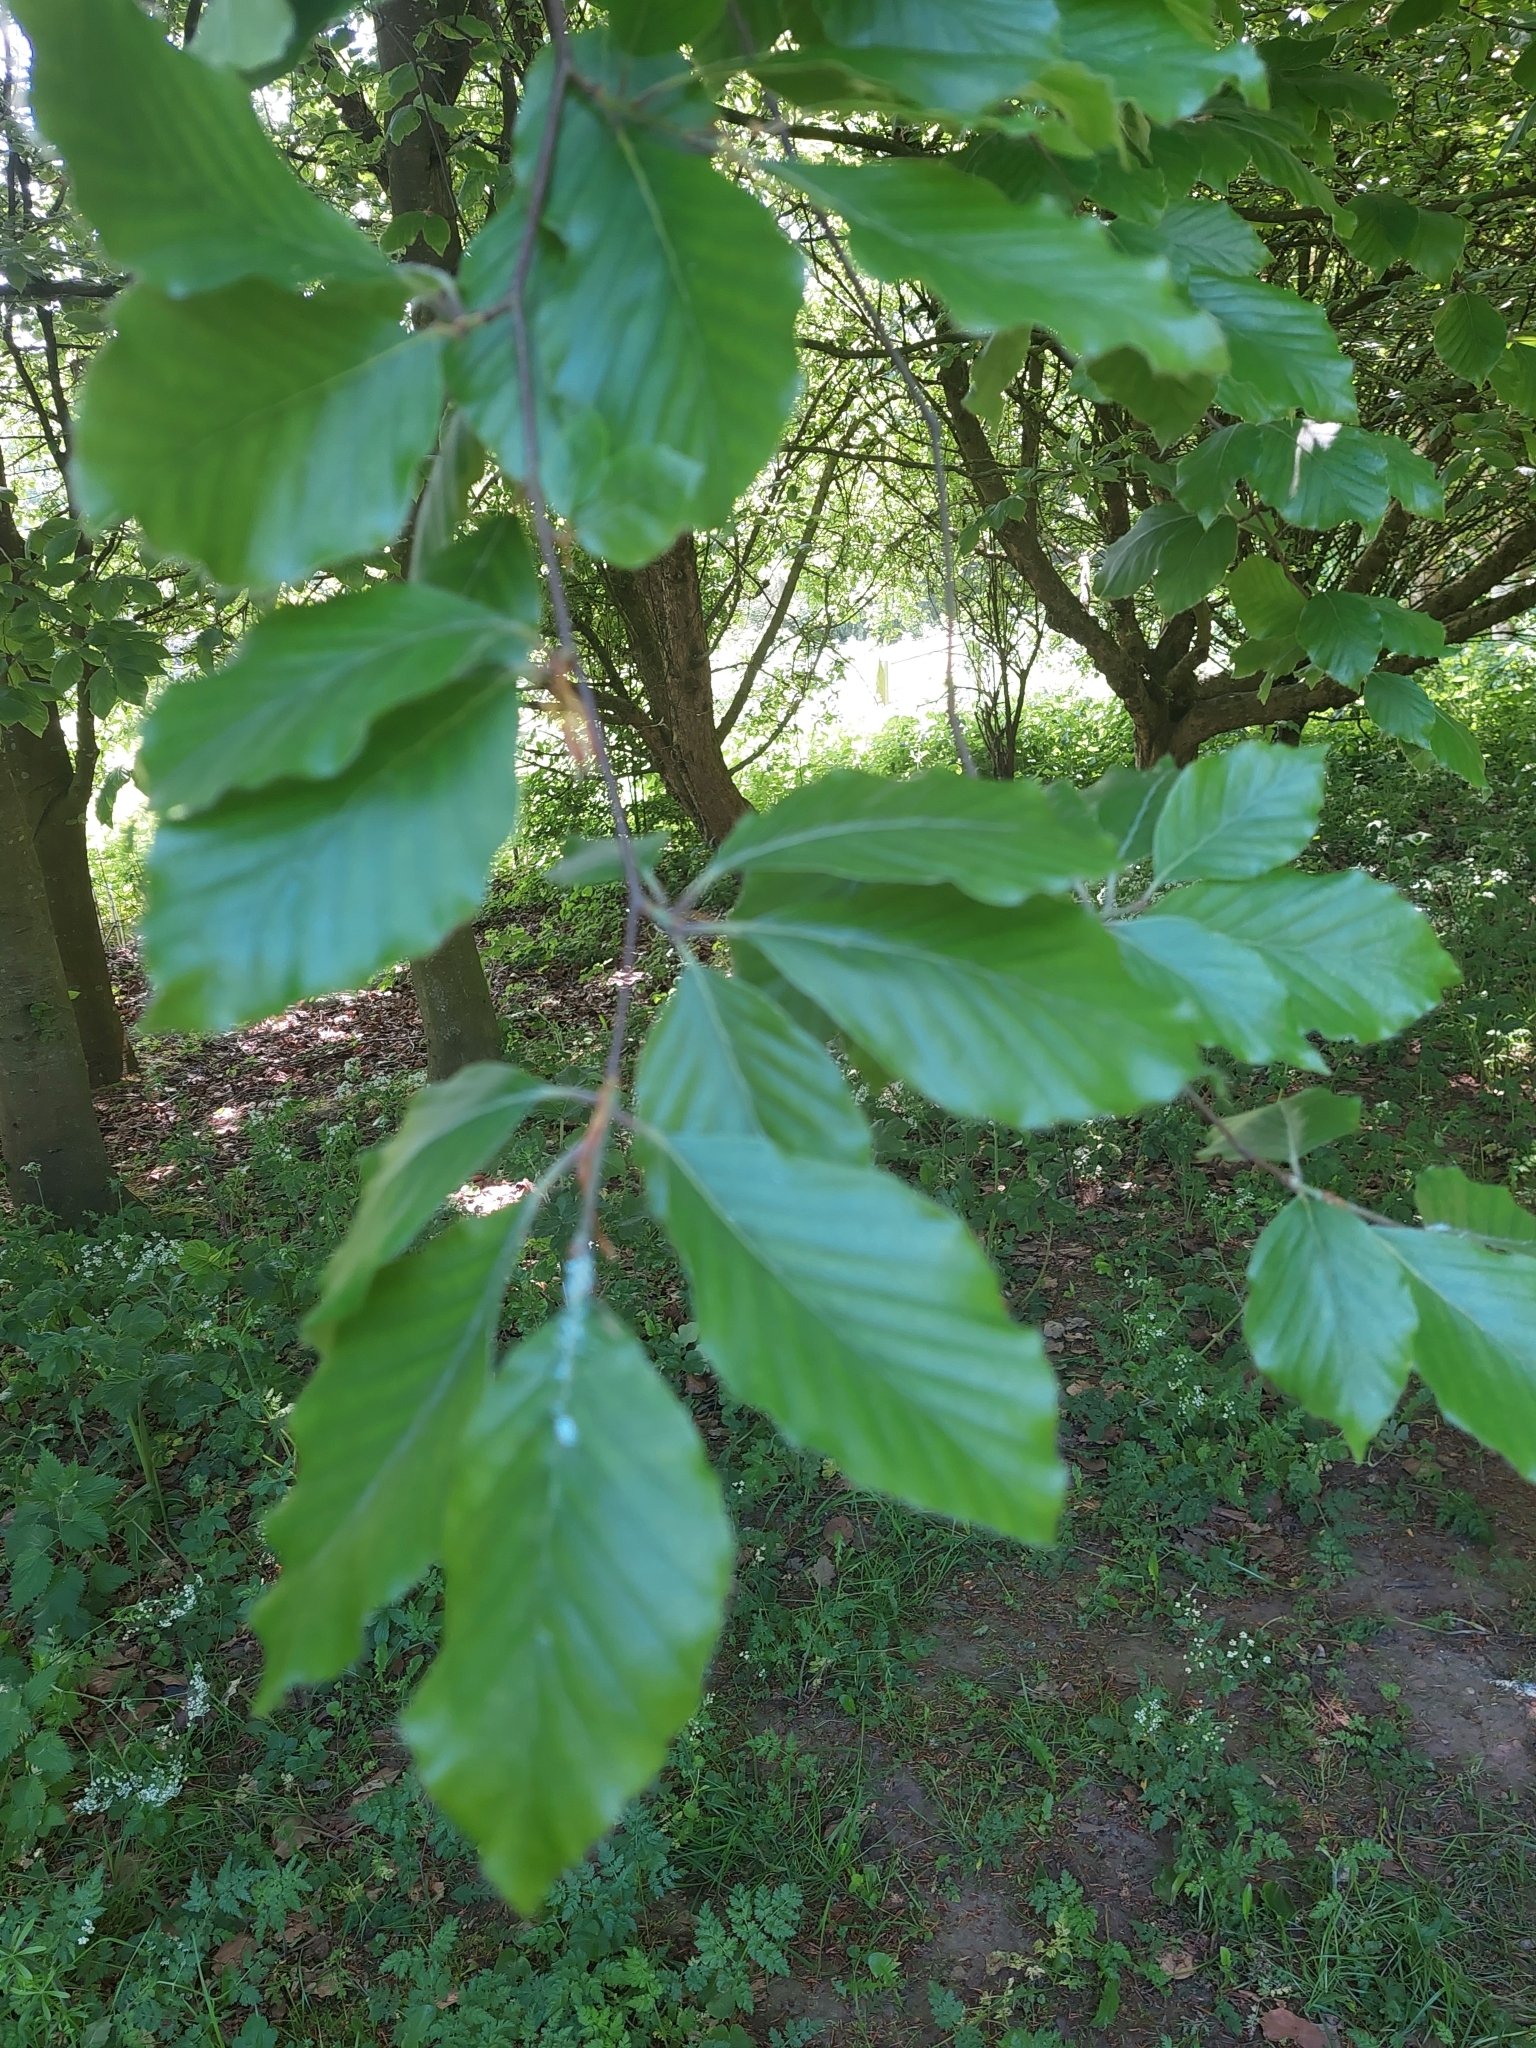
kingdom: Plantae
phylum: Tracheophyta
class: Magnoliopsida
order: Fagales
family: Fagaceae
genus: Fagus
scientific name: Fagus sylvatica
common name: Beech
